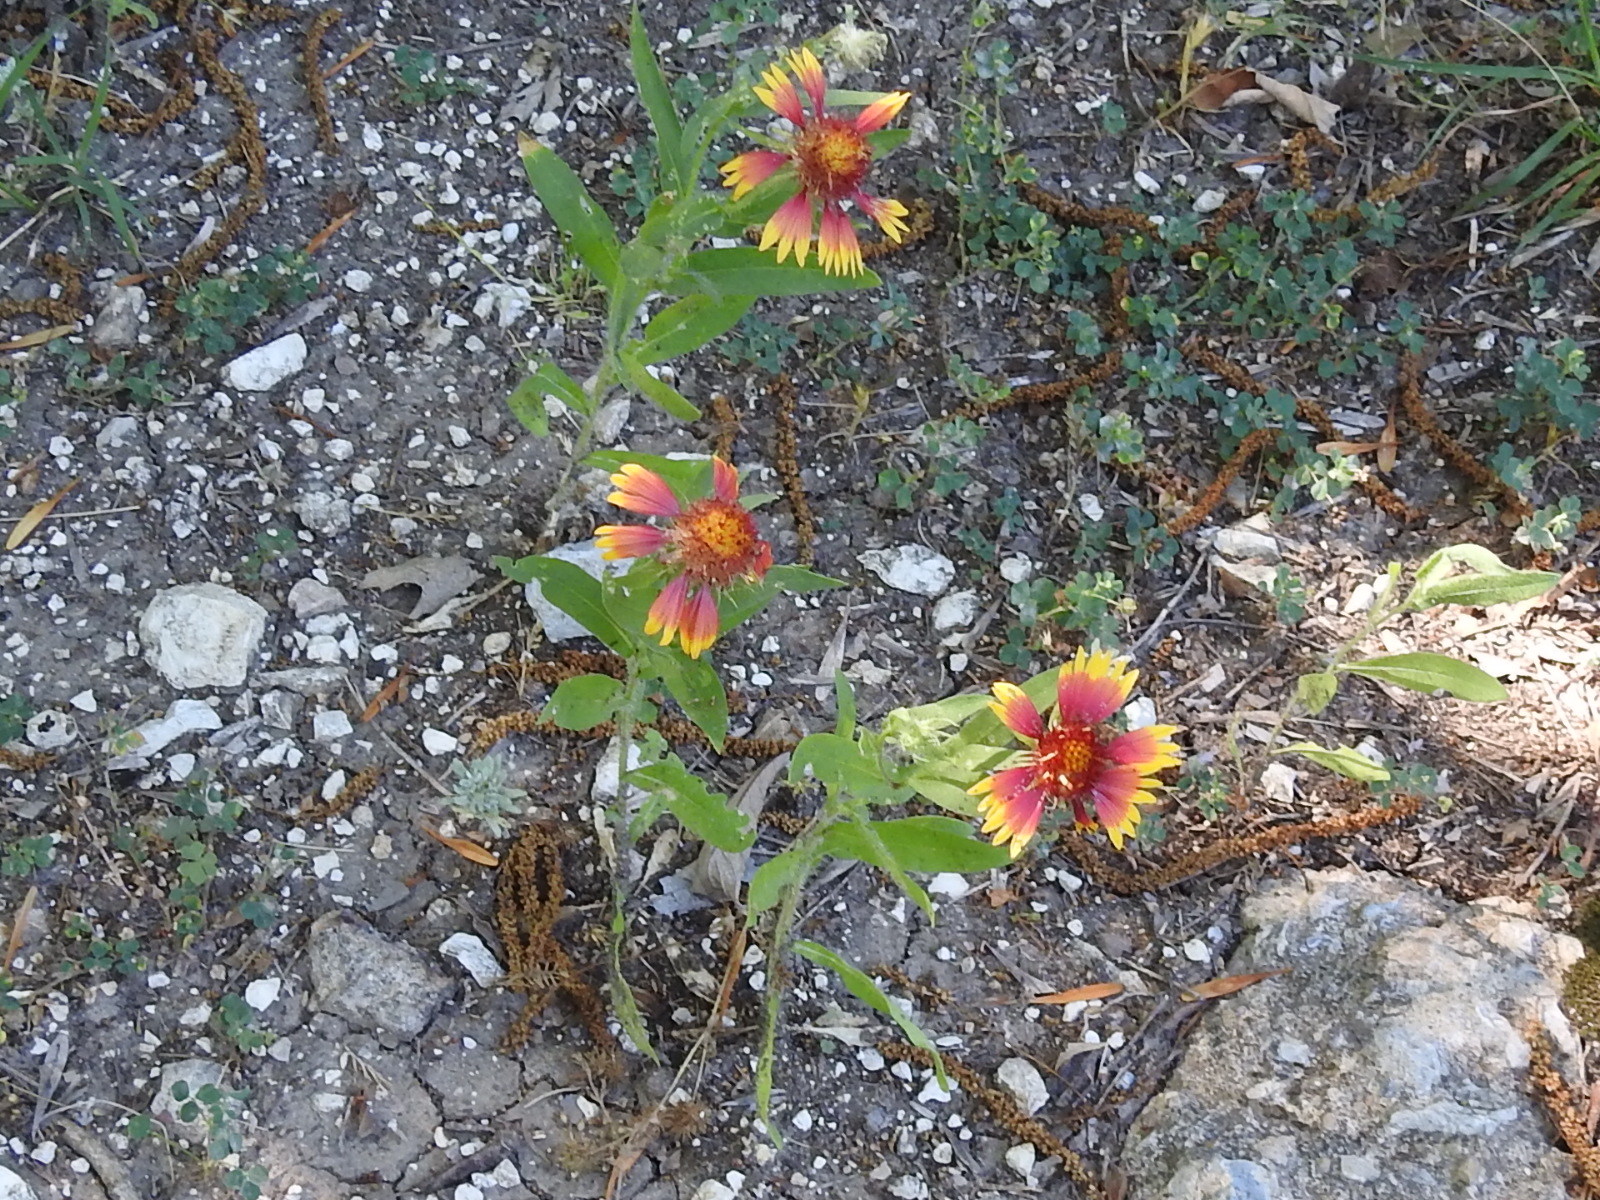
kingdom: Plantae
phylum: Tracheophyta
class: Magnoliopsida
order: Asterales
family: Asteraceae
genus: Gaillardia
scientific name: Gaillardia pulchella
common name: Firewheel
